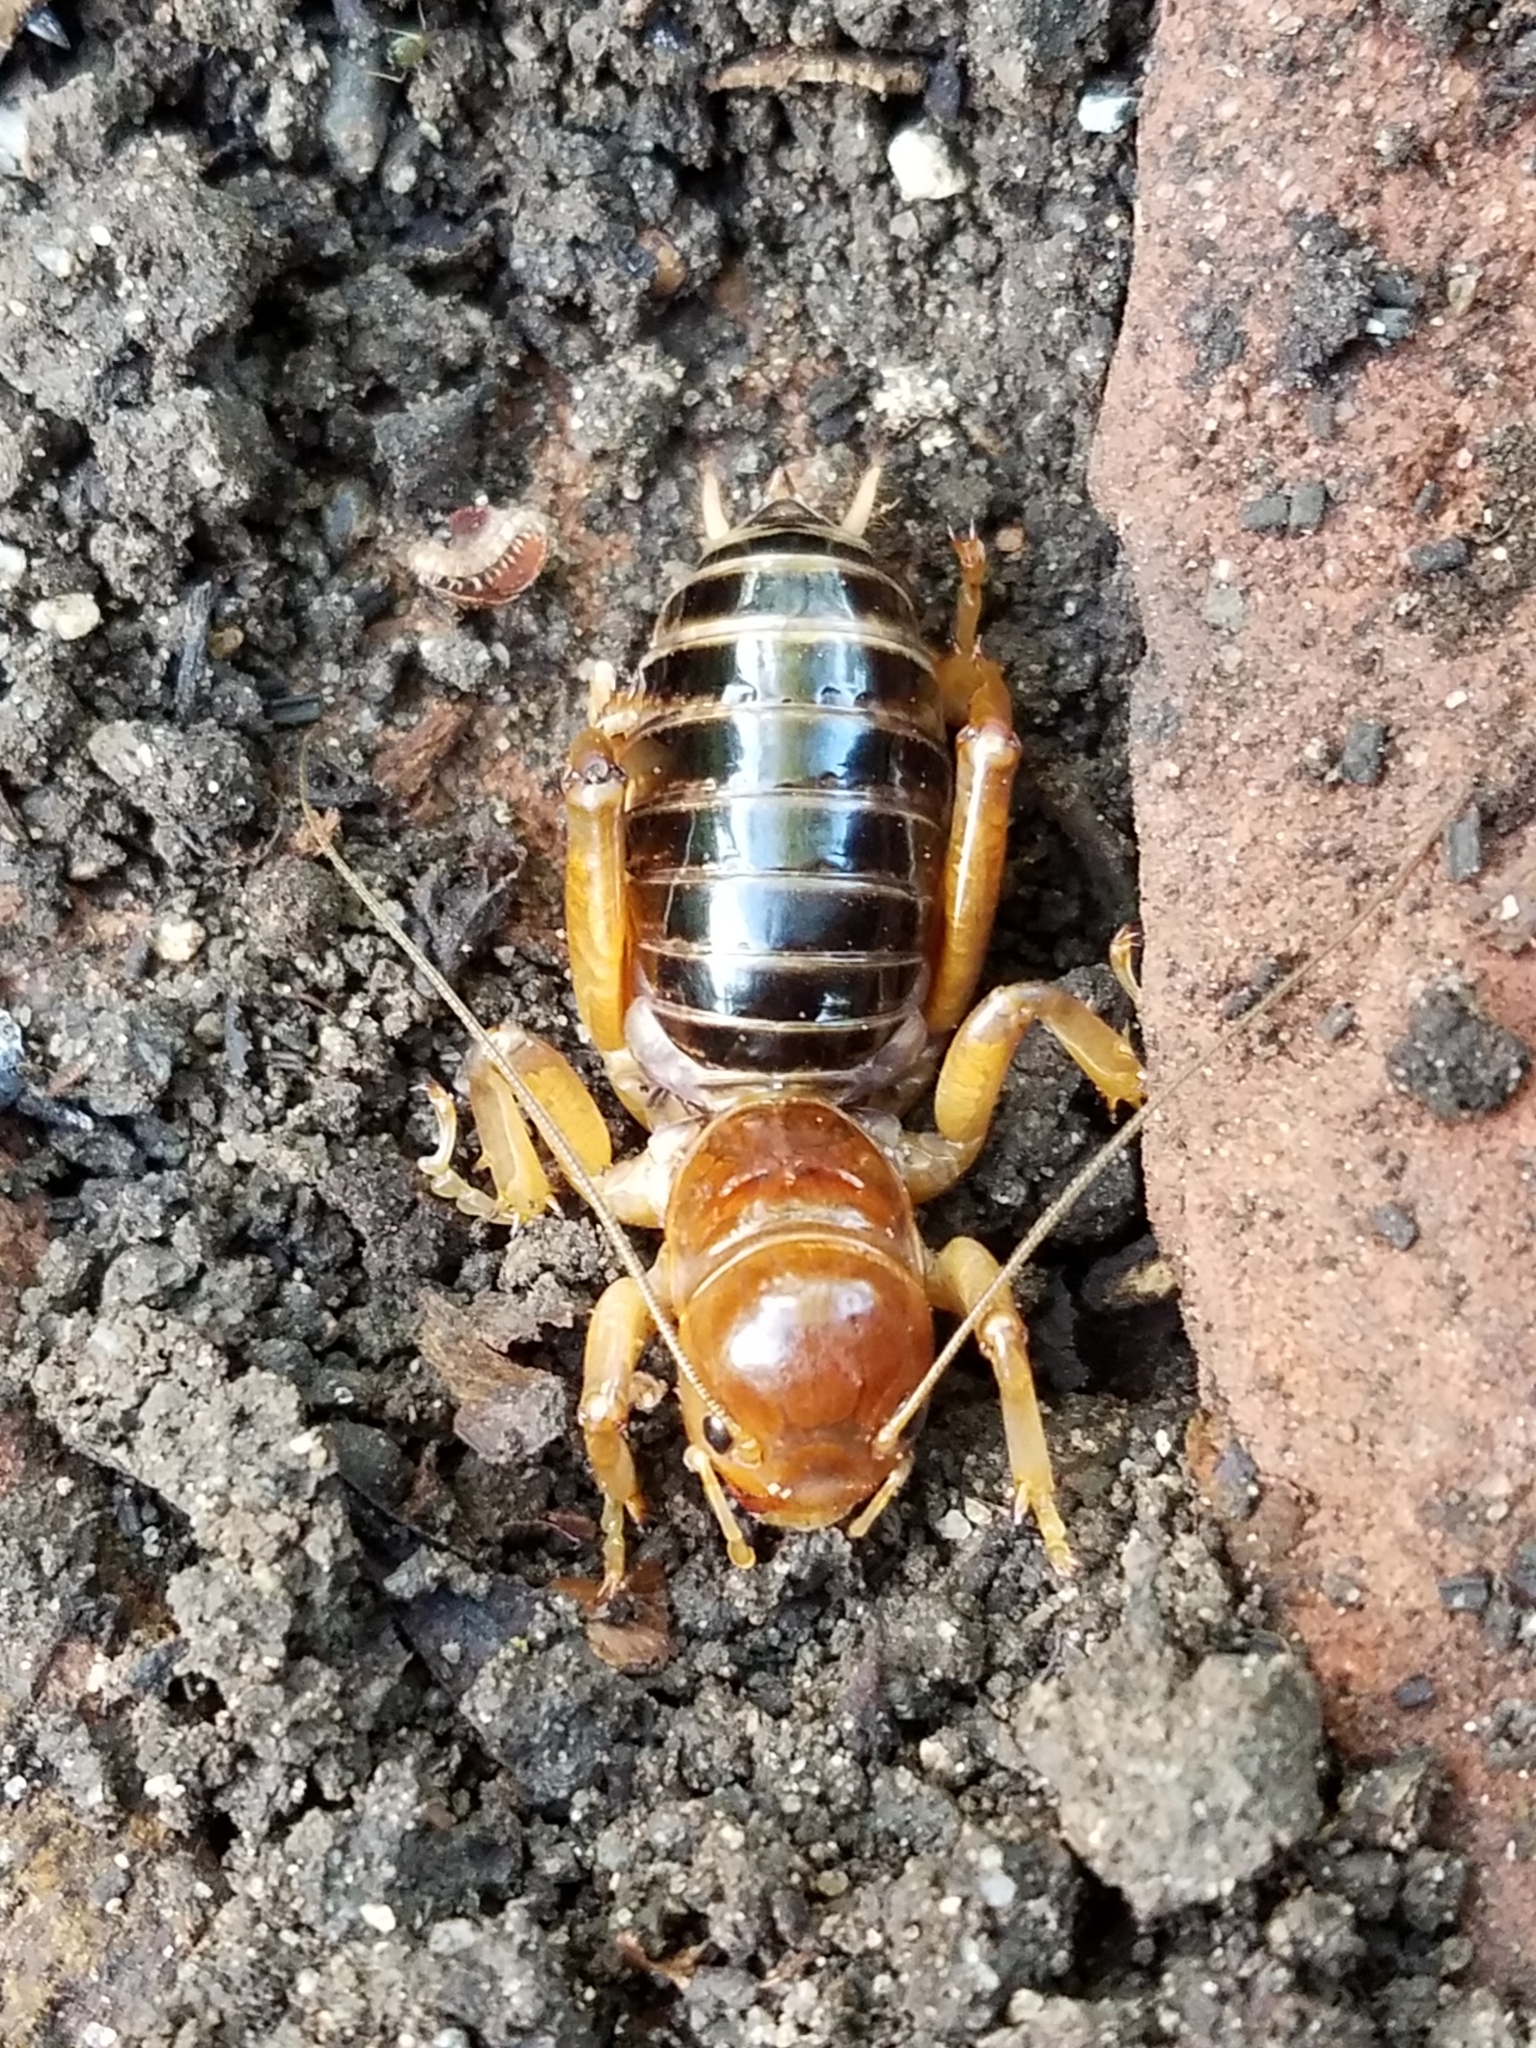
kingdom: Animalia
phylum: Arthropoda
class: Insecta
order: Orthoptera
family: Stenopelmatidae
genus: Ammopelmatus
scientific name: Ammopelmatus
